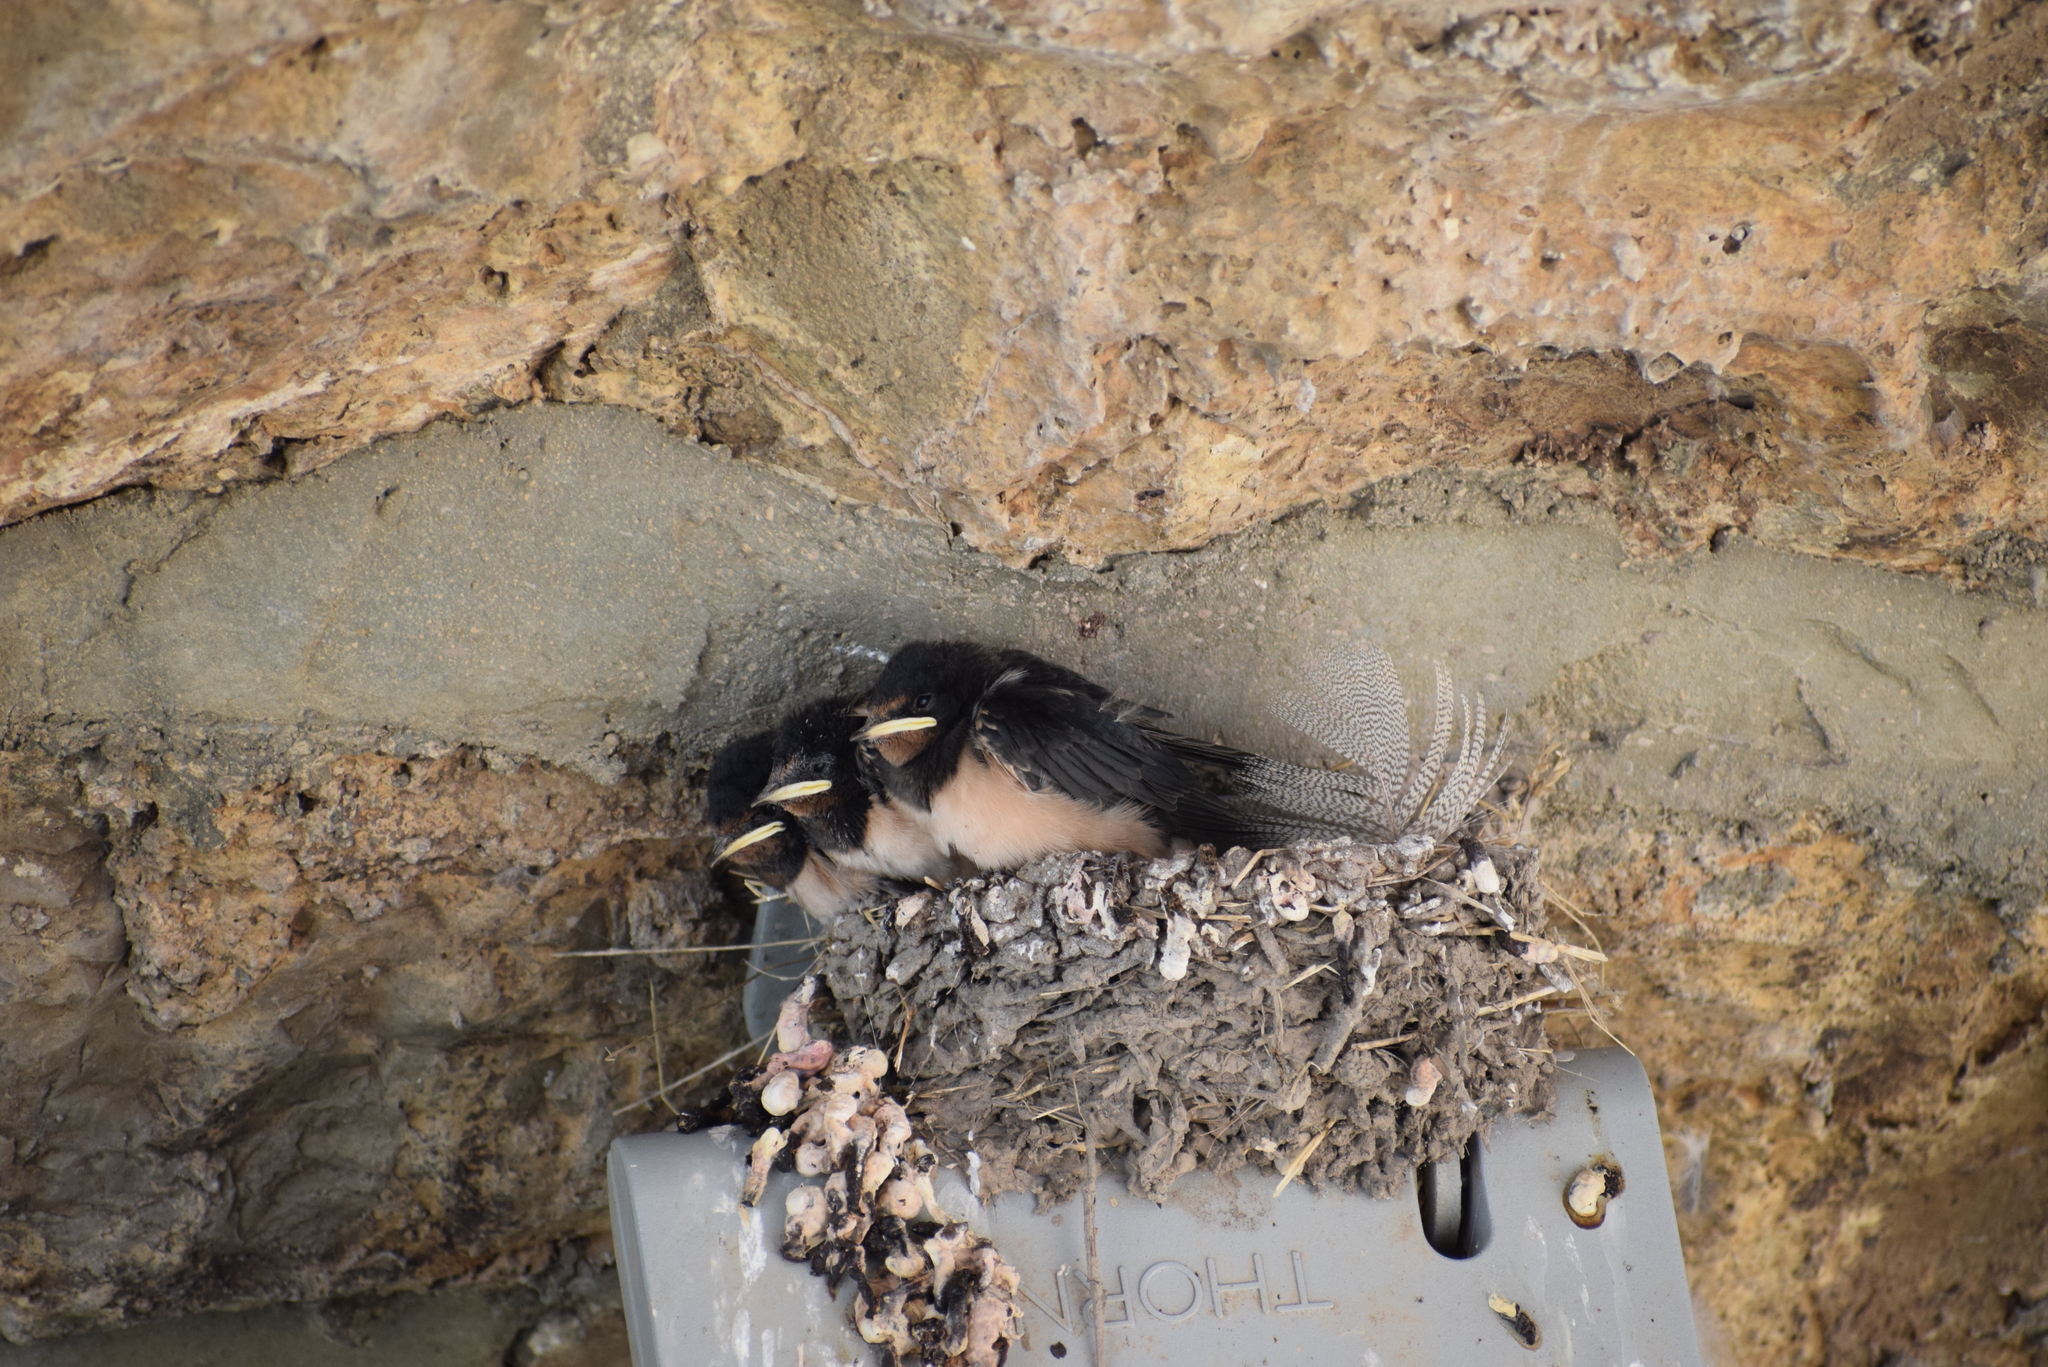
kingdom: Animalia
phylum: Chordata
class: Aves
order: Passeriformes
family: Hirundinidae
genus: Hirundo
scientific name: Hirundo rustica
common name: Barn swallow
